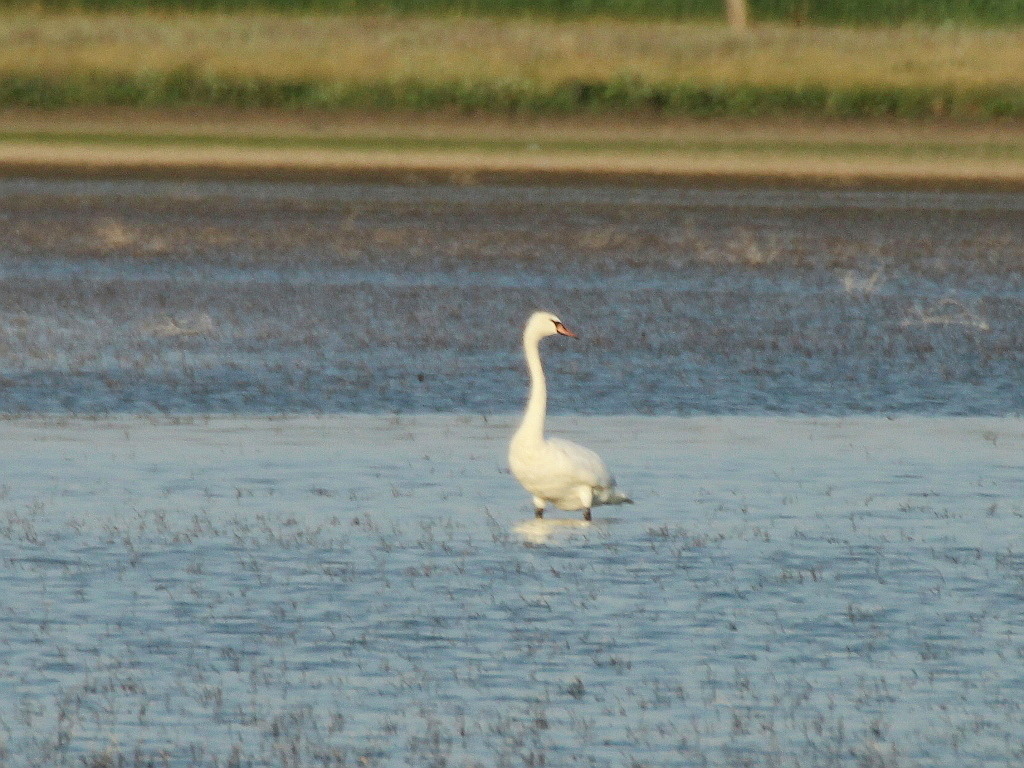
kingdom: Animalia
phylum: Chordata
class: Aves
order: Anseriformes
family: Anatidae
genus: Cygnus
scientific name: Cygnus olor
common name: Mute swan
